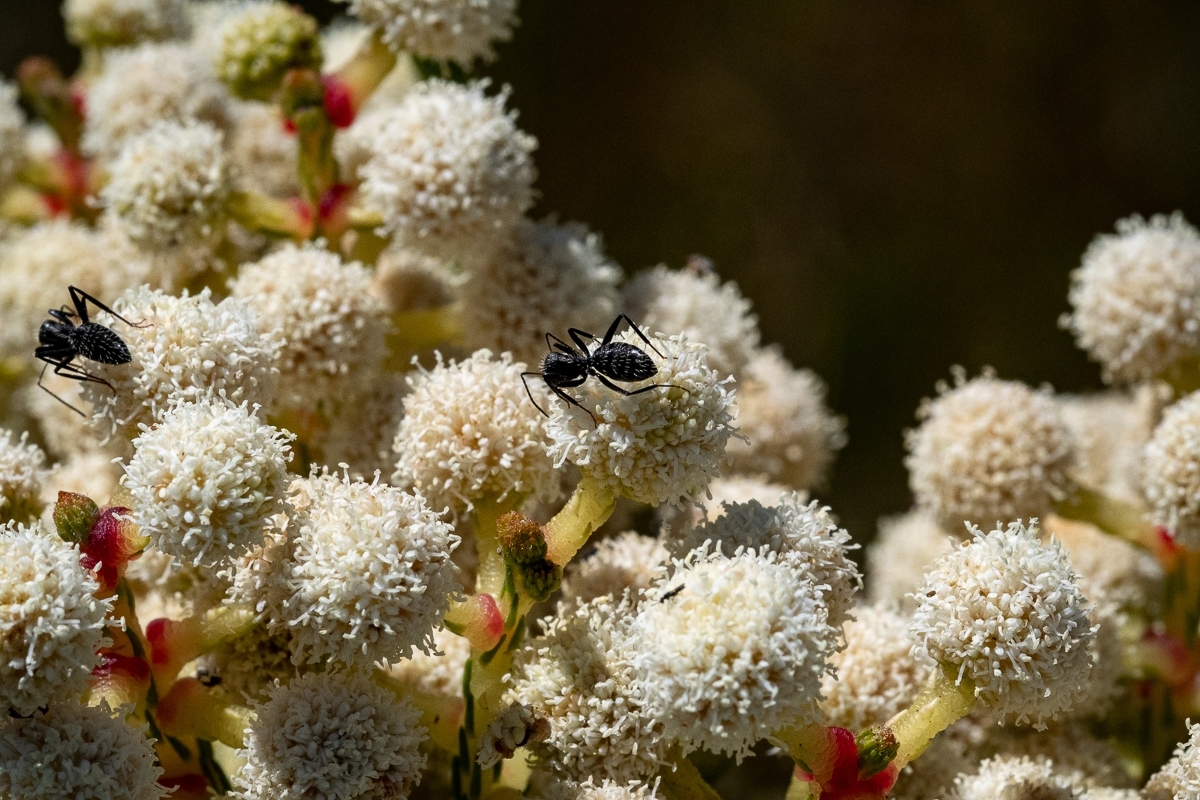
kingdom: Animalia
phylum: Arthropoda
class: Insecta
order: Hymenoptera
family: Formicidae
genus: Camponotus
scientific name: Camponotus niveosetosus
